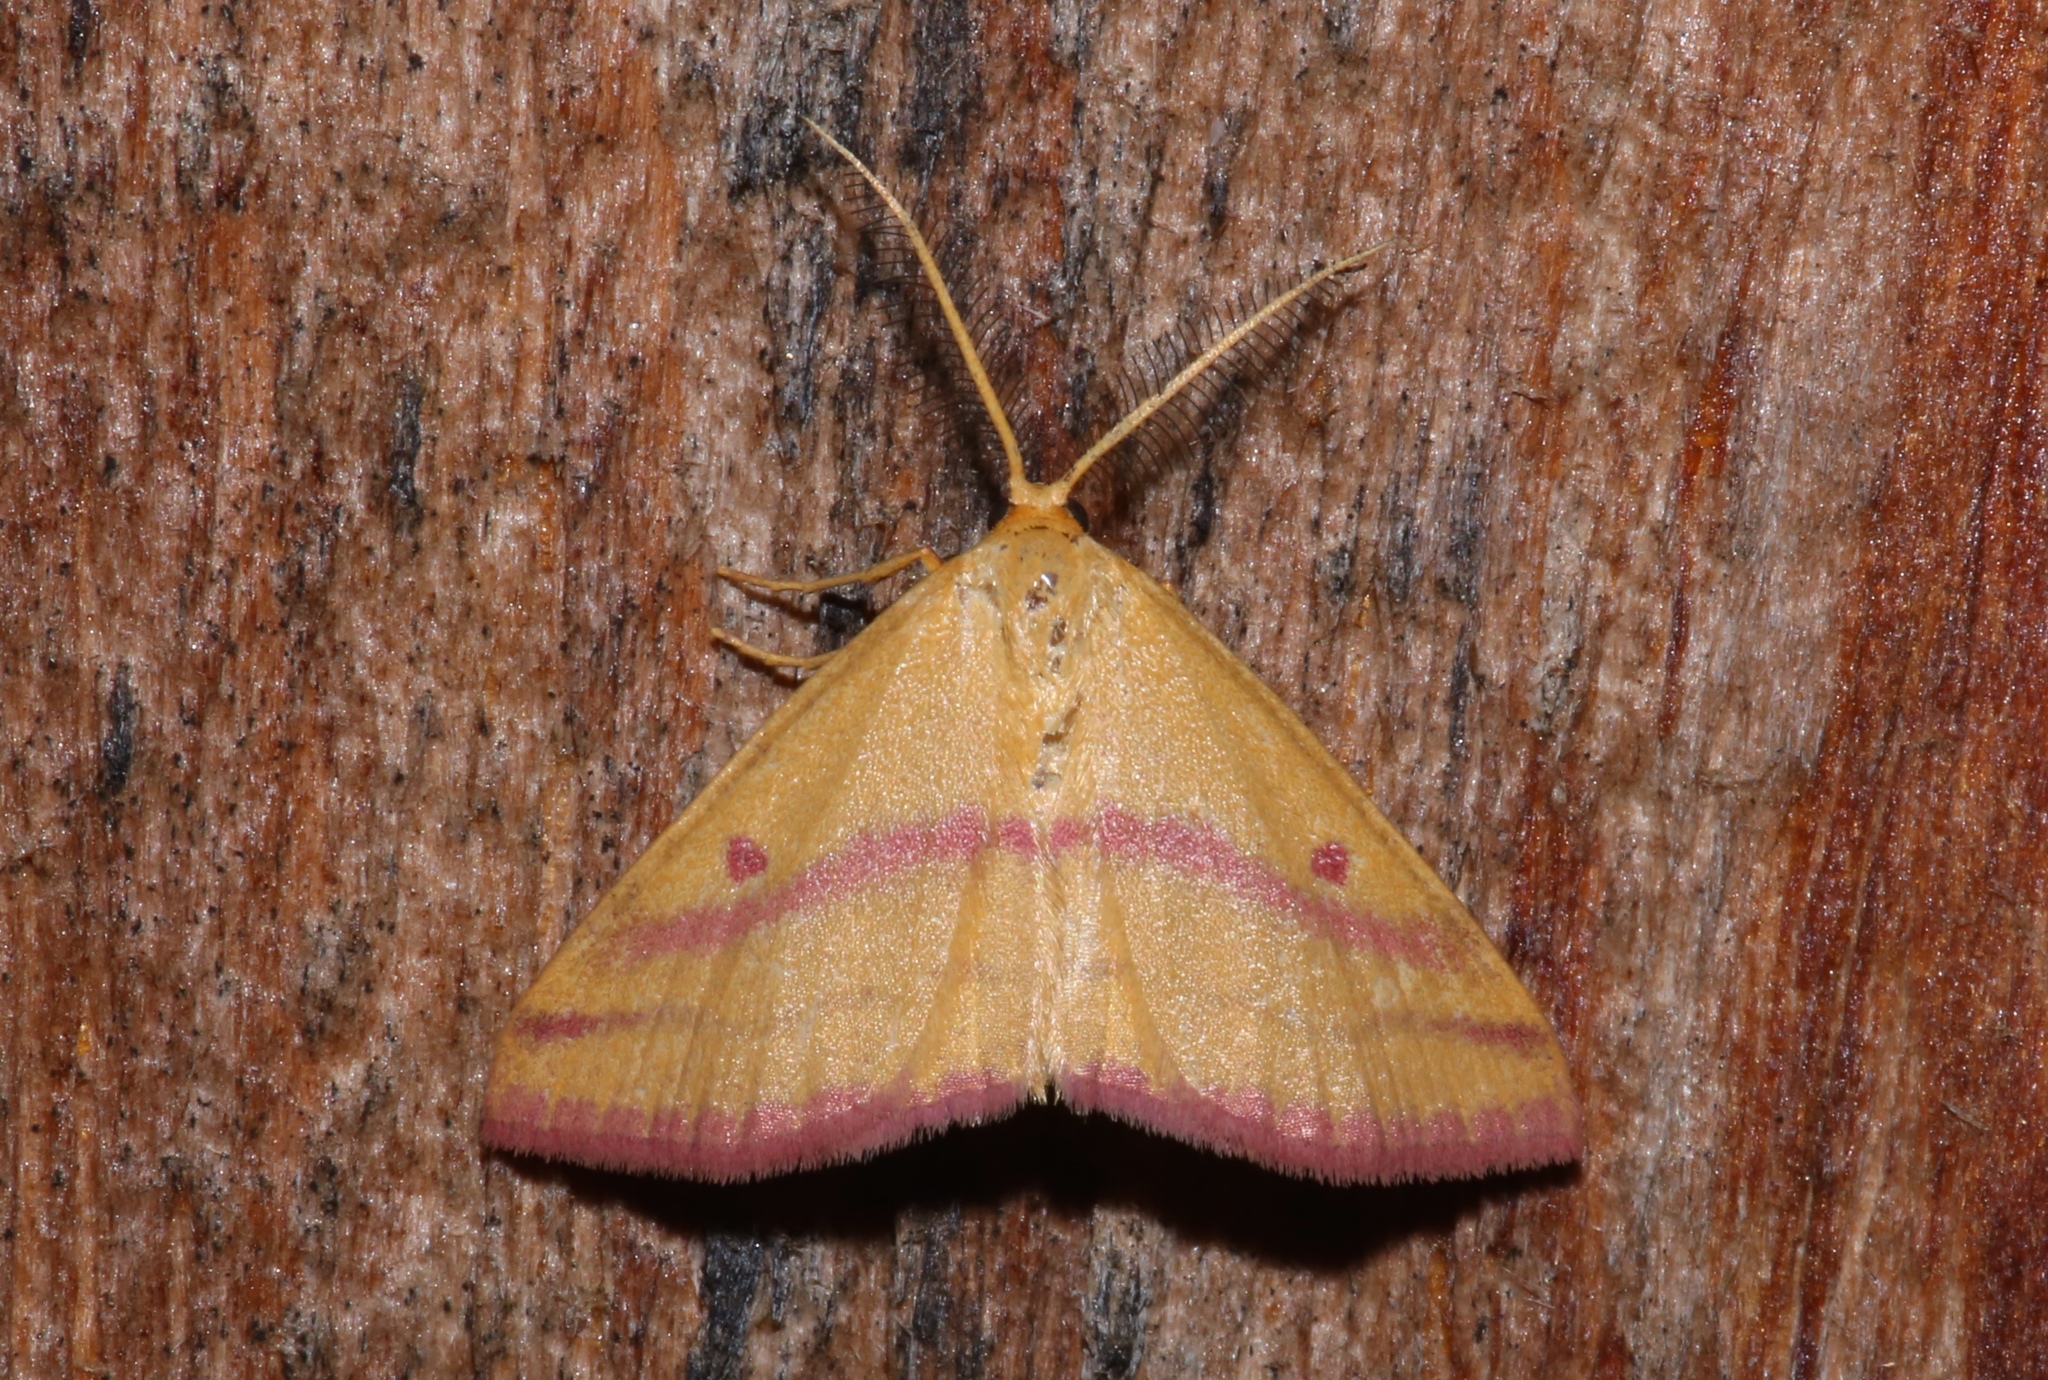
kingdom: Animalia
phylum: Arthropoda
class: Insecta
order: Lepidoptera
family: Geometridae
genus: Haematopis
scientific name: Haematopis grataria
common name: Chickweed geometer
